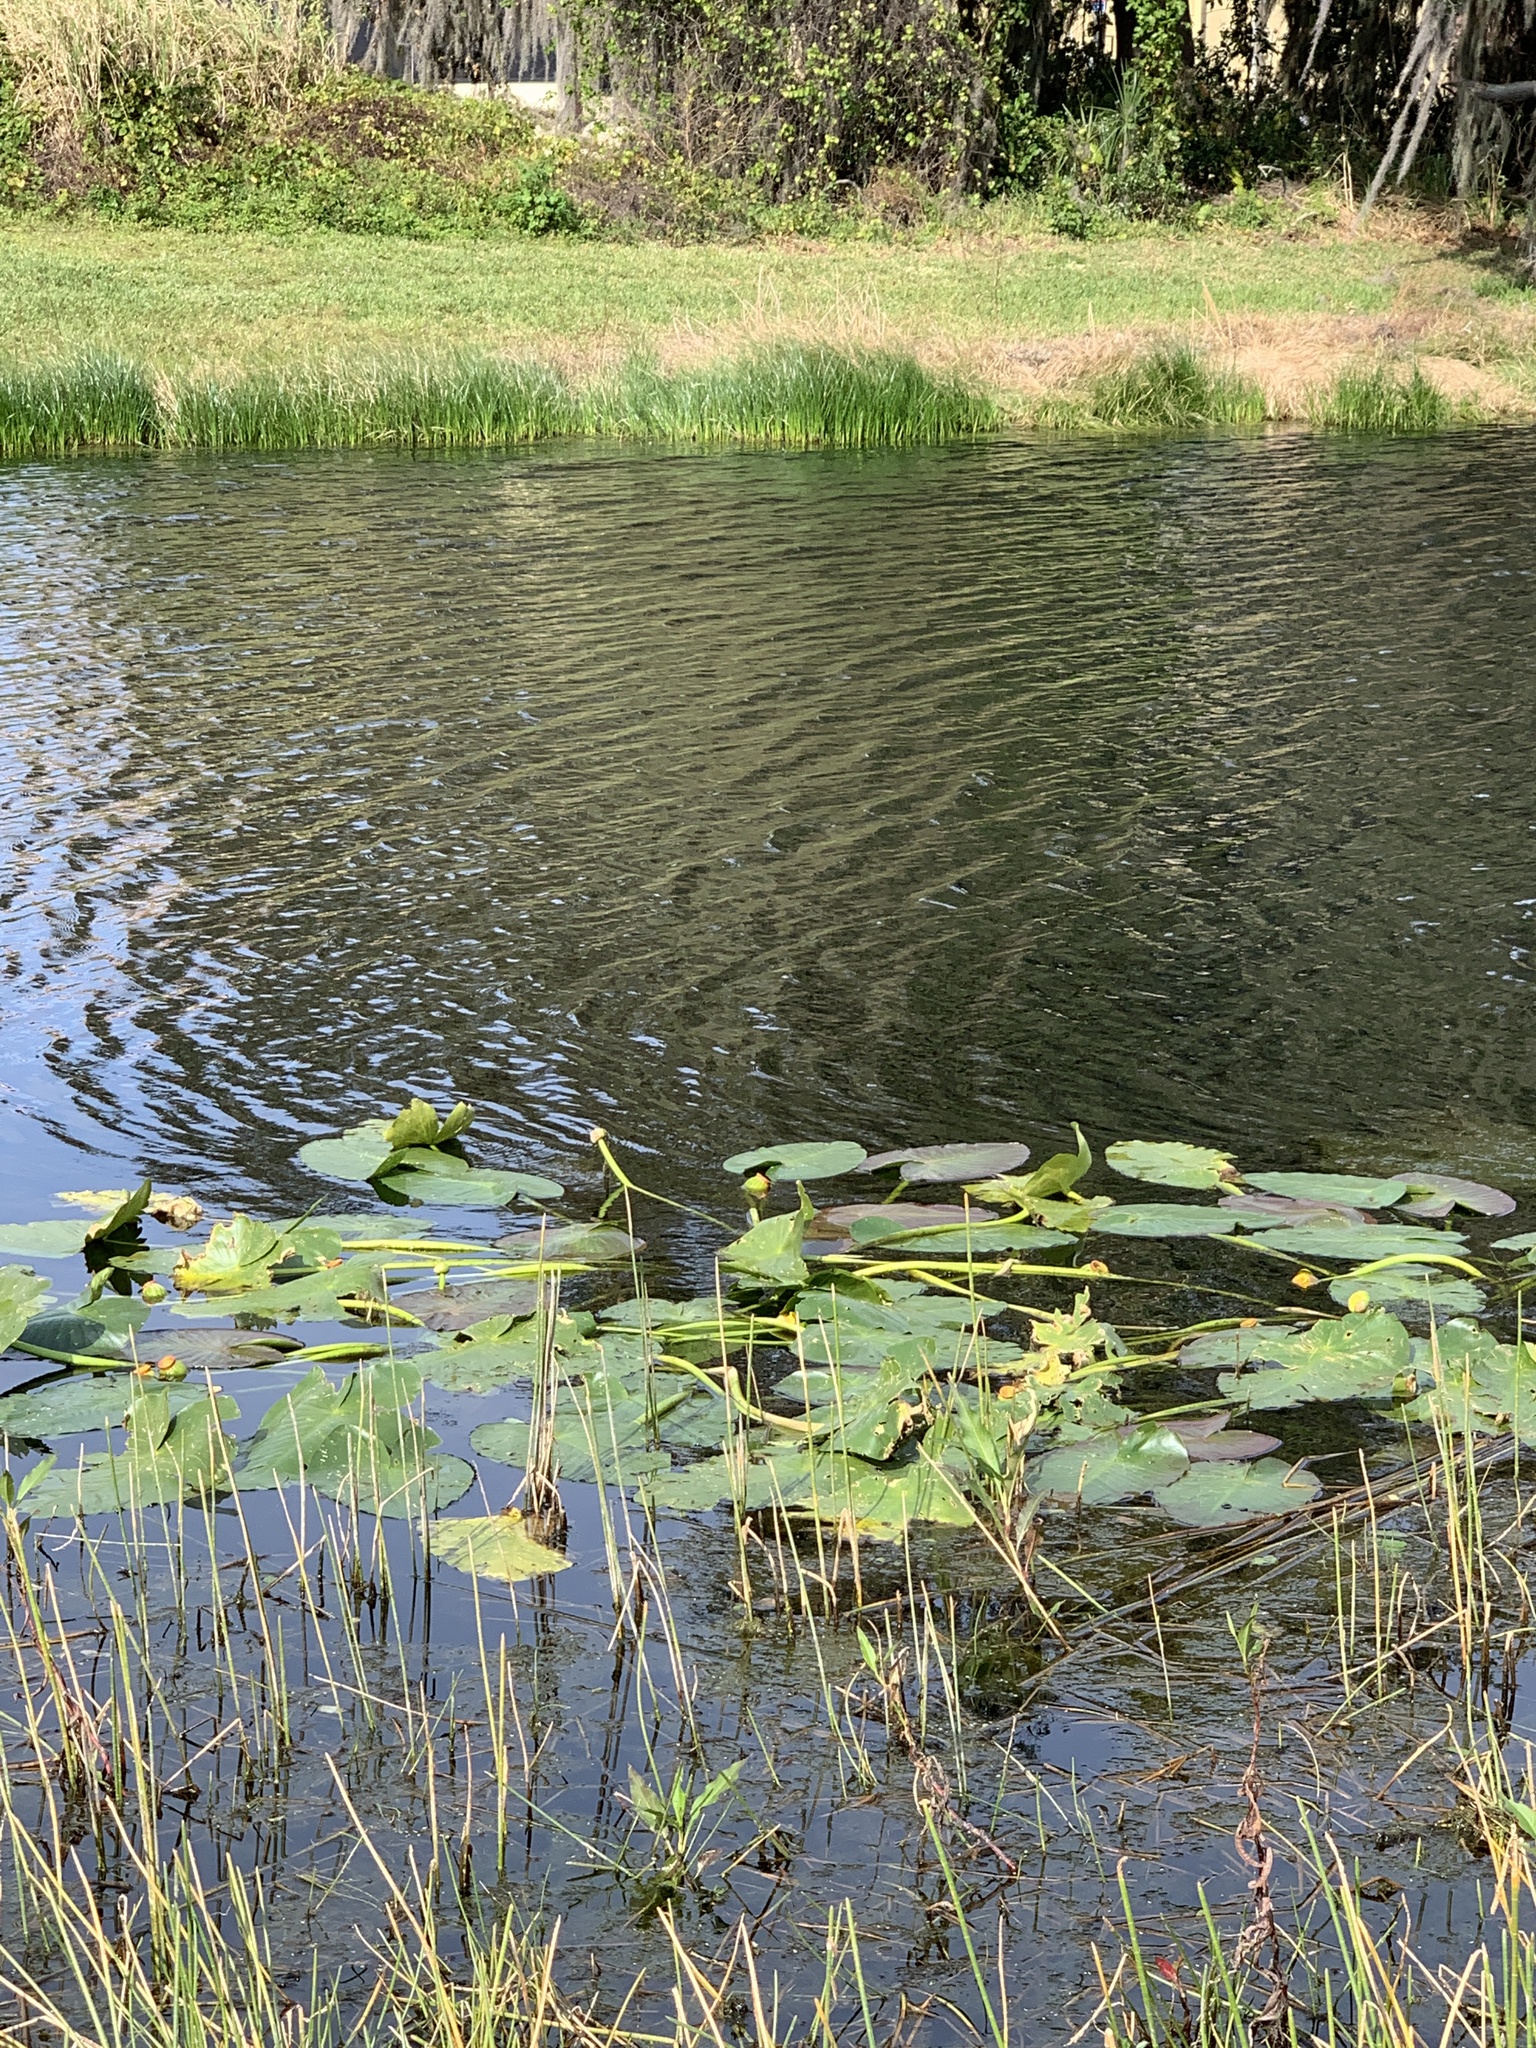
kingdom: Plantae
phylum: Tracheophyta
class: Magnoliopsida
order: Nymphaeales
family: Nymphaeaceae
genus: Nuphar
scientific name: Nuphar advena
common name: Spatter-dock
